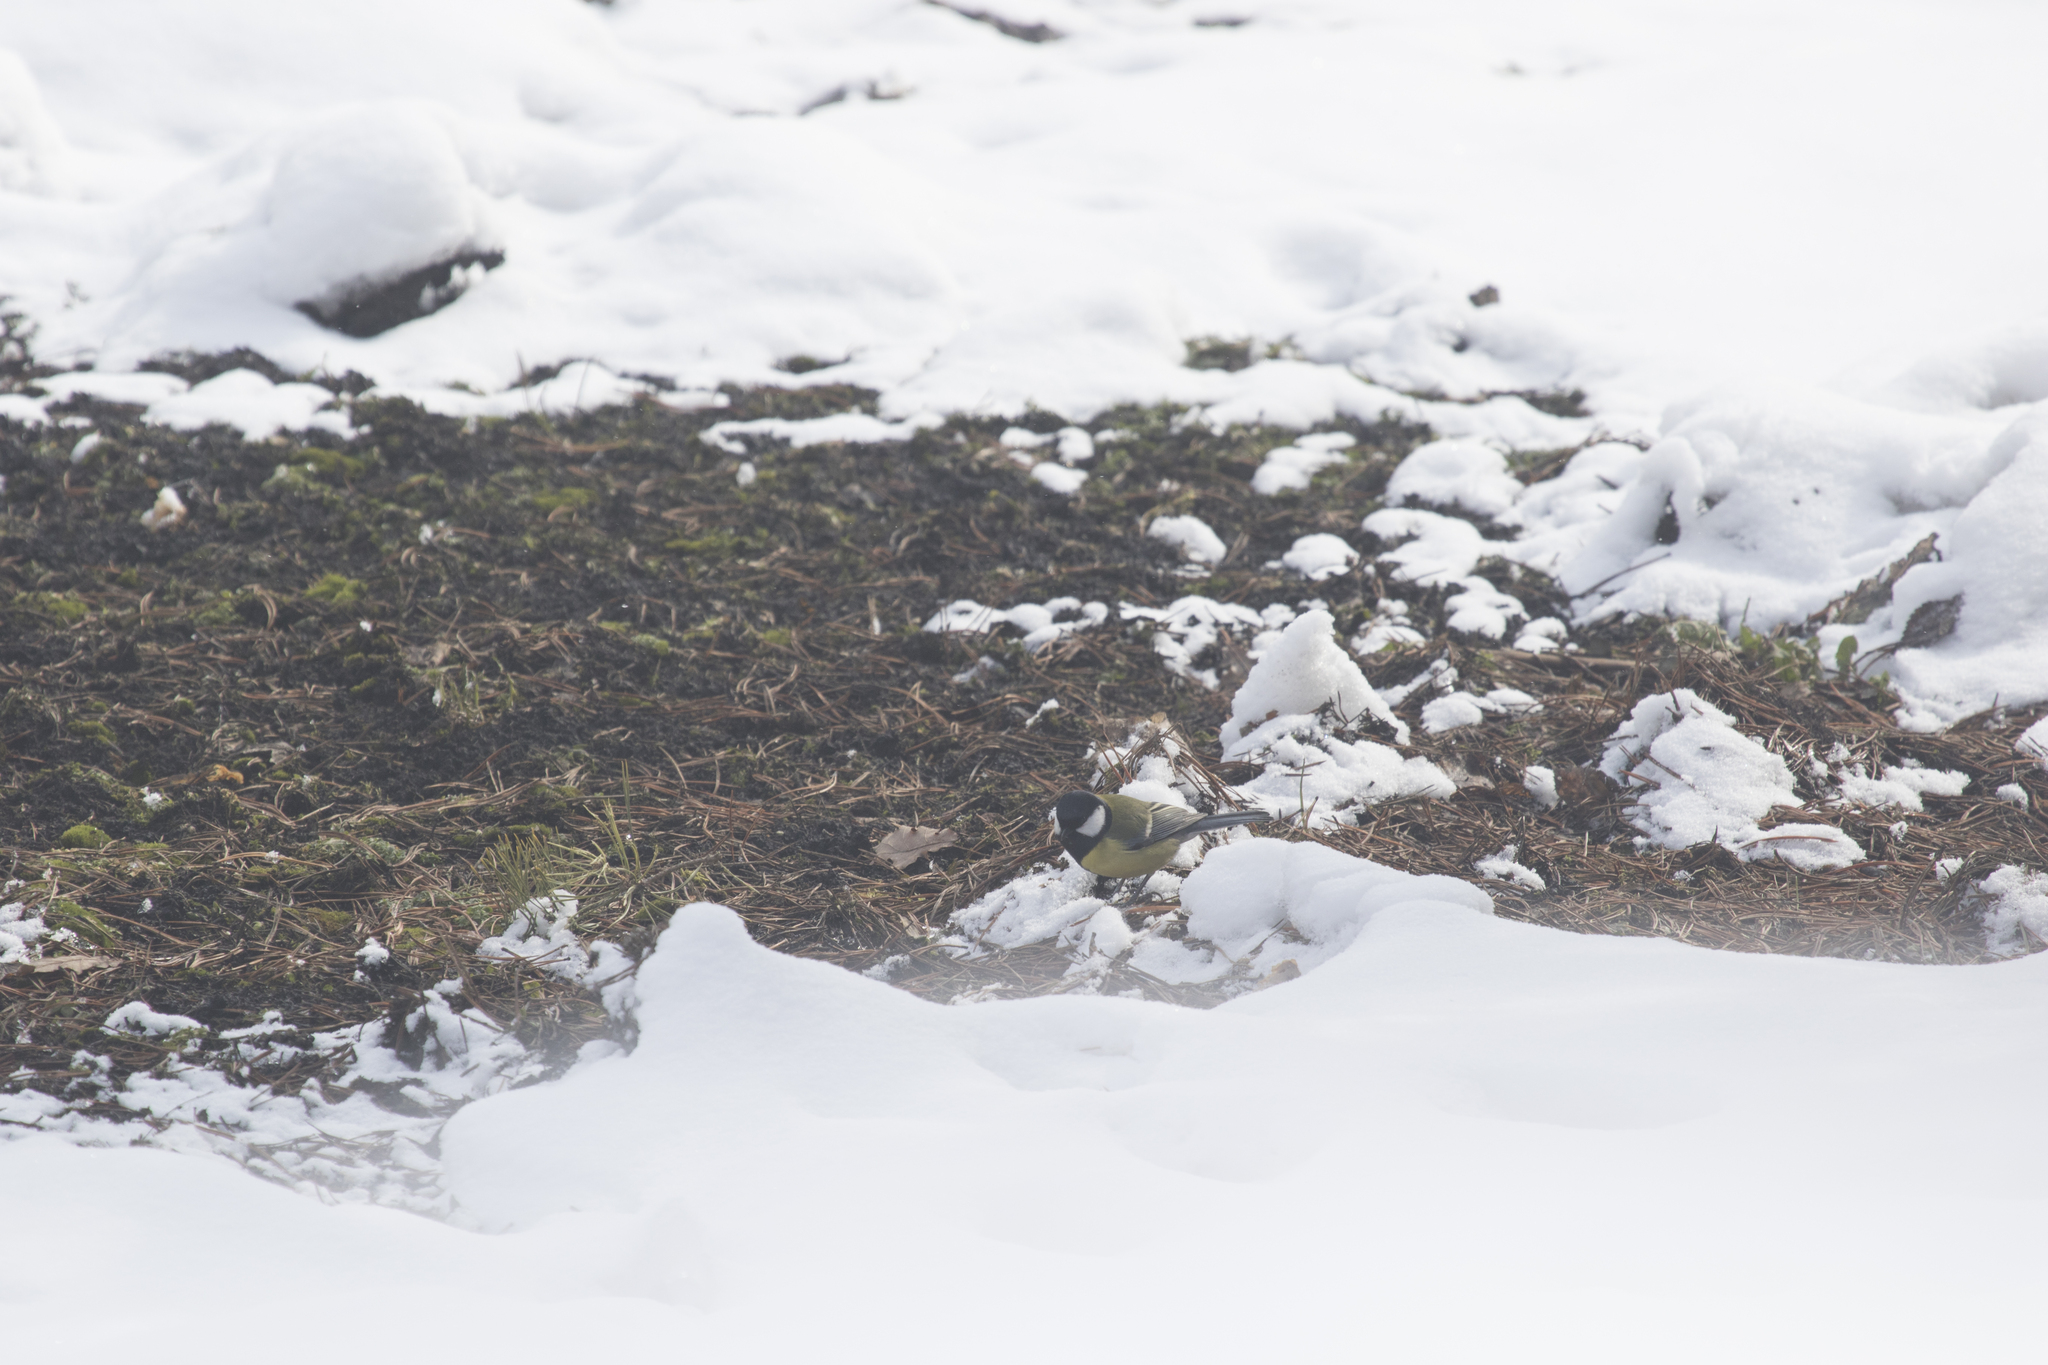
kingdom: Animalia
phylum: Chordata
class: Aves
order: Passeriformes
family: Paridae
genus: Parus
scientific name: Parus major
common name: Great tit
